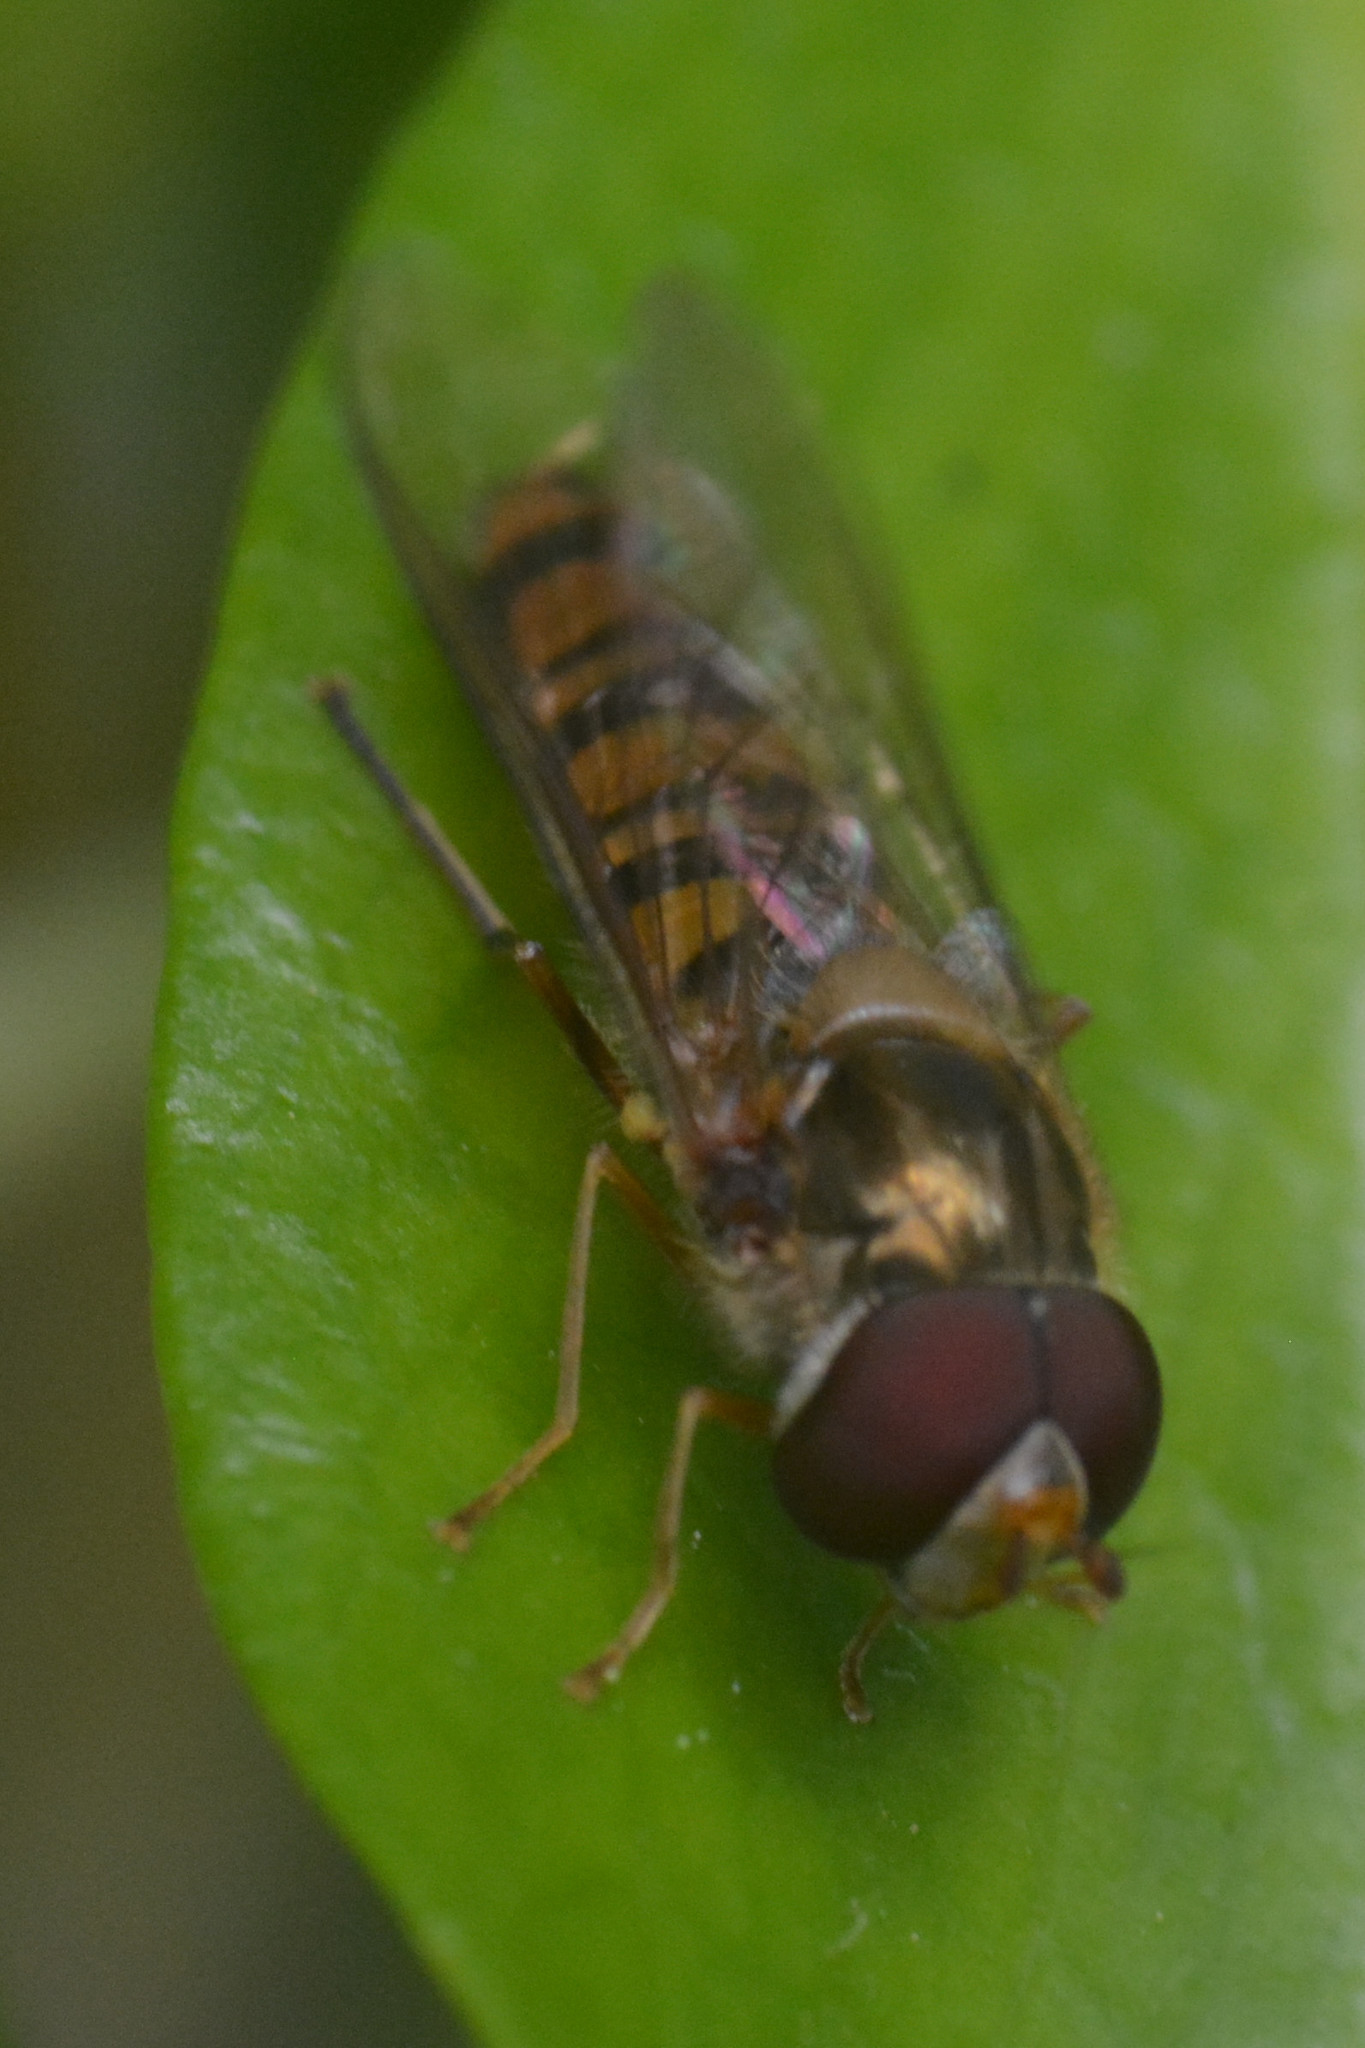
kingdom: Animalia
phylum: Arthropoda
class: Insecta
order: Diptera
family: Syrphidae
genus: Episyrphus
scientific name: Episyrphus balteatus
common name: Marmalade hoverfly
